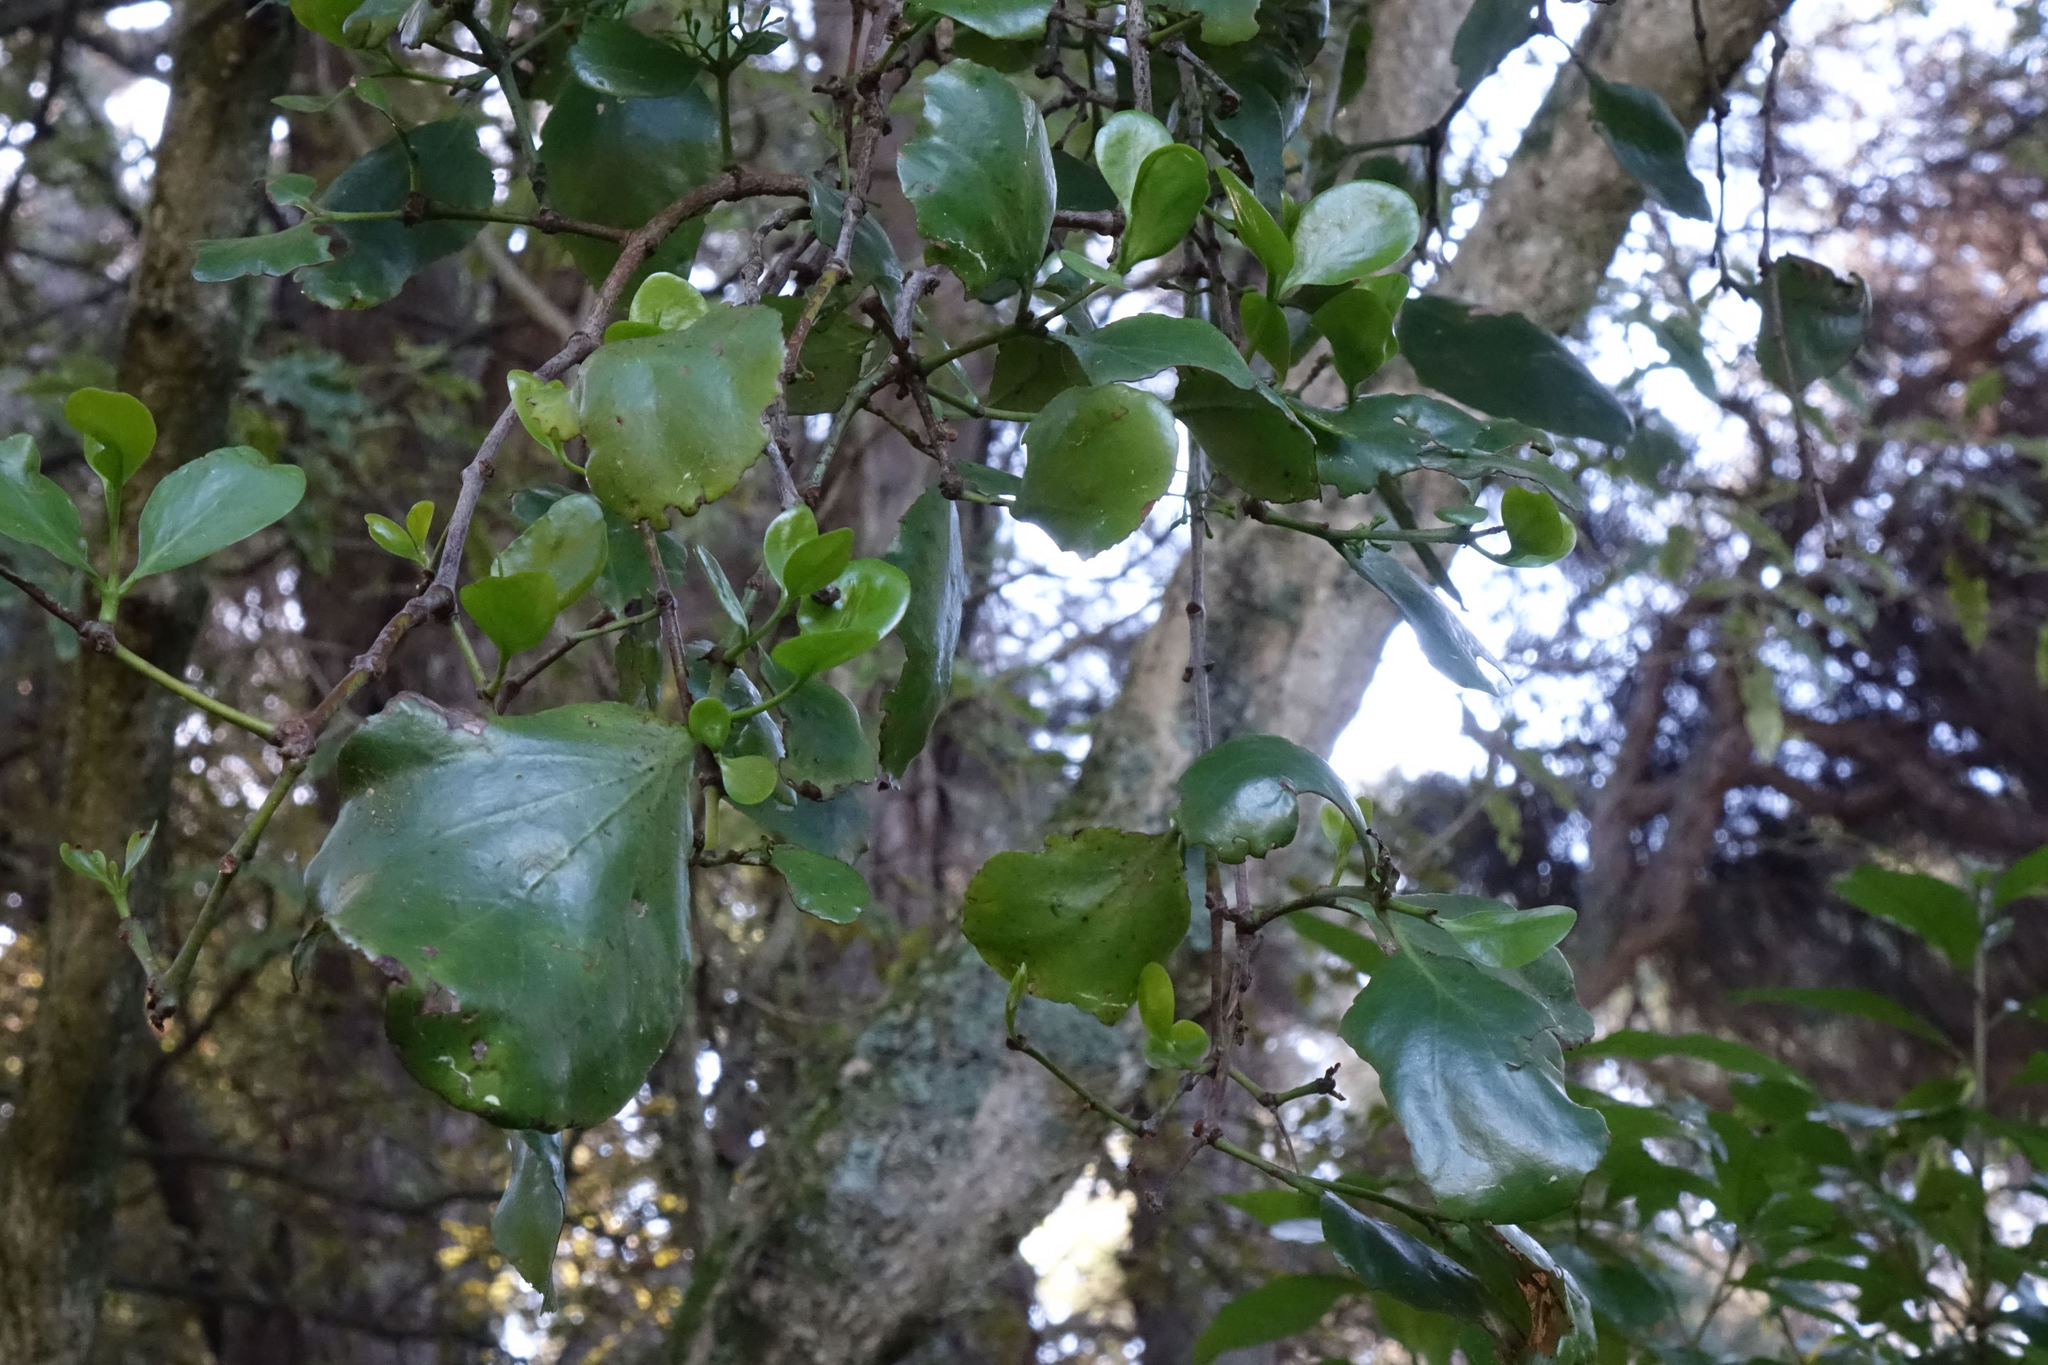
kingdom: Plantae
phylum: Tracheophyta
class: Magnoliopsida
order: Santalales
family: Loranthaceae
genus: Ileostylus
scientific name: Ileostylus micranthus
